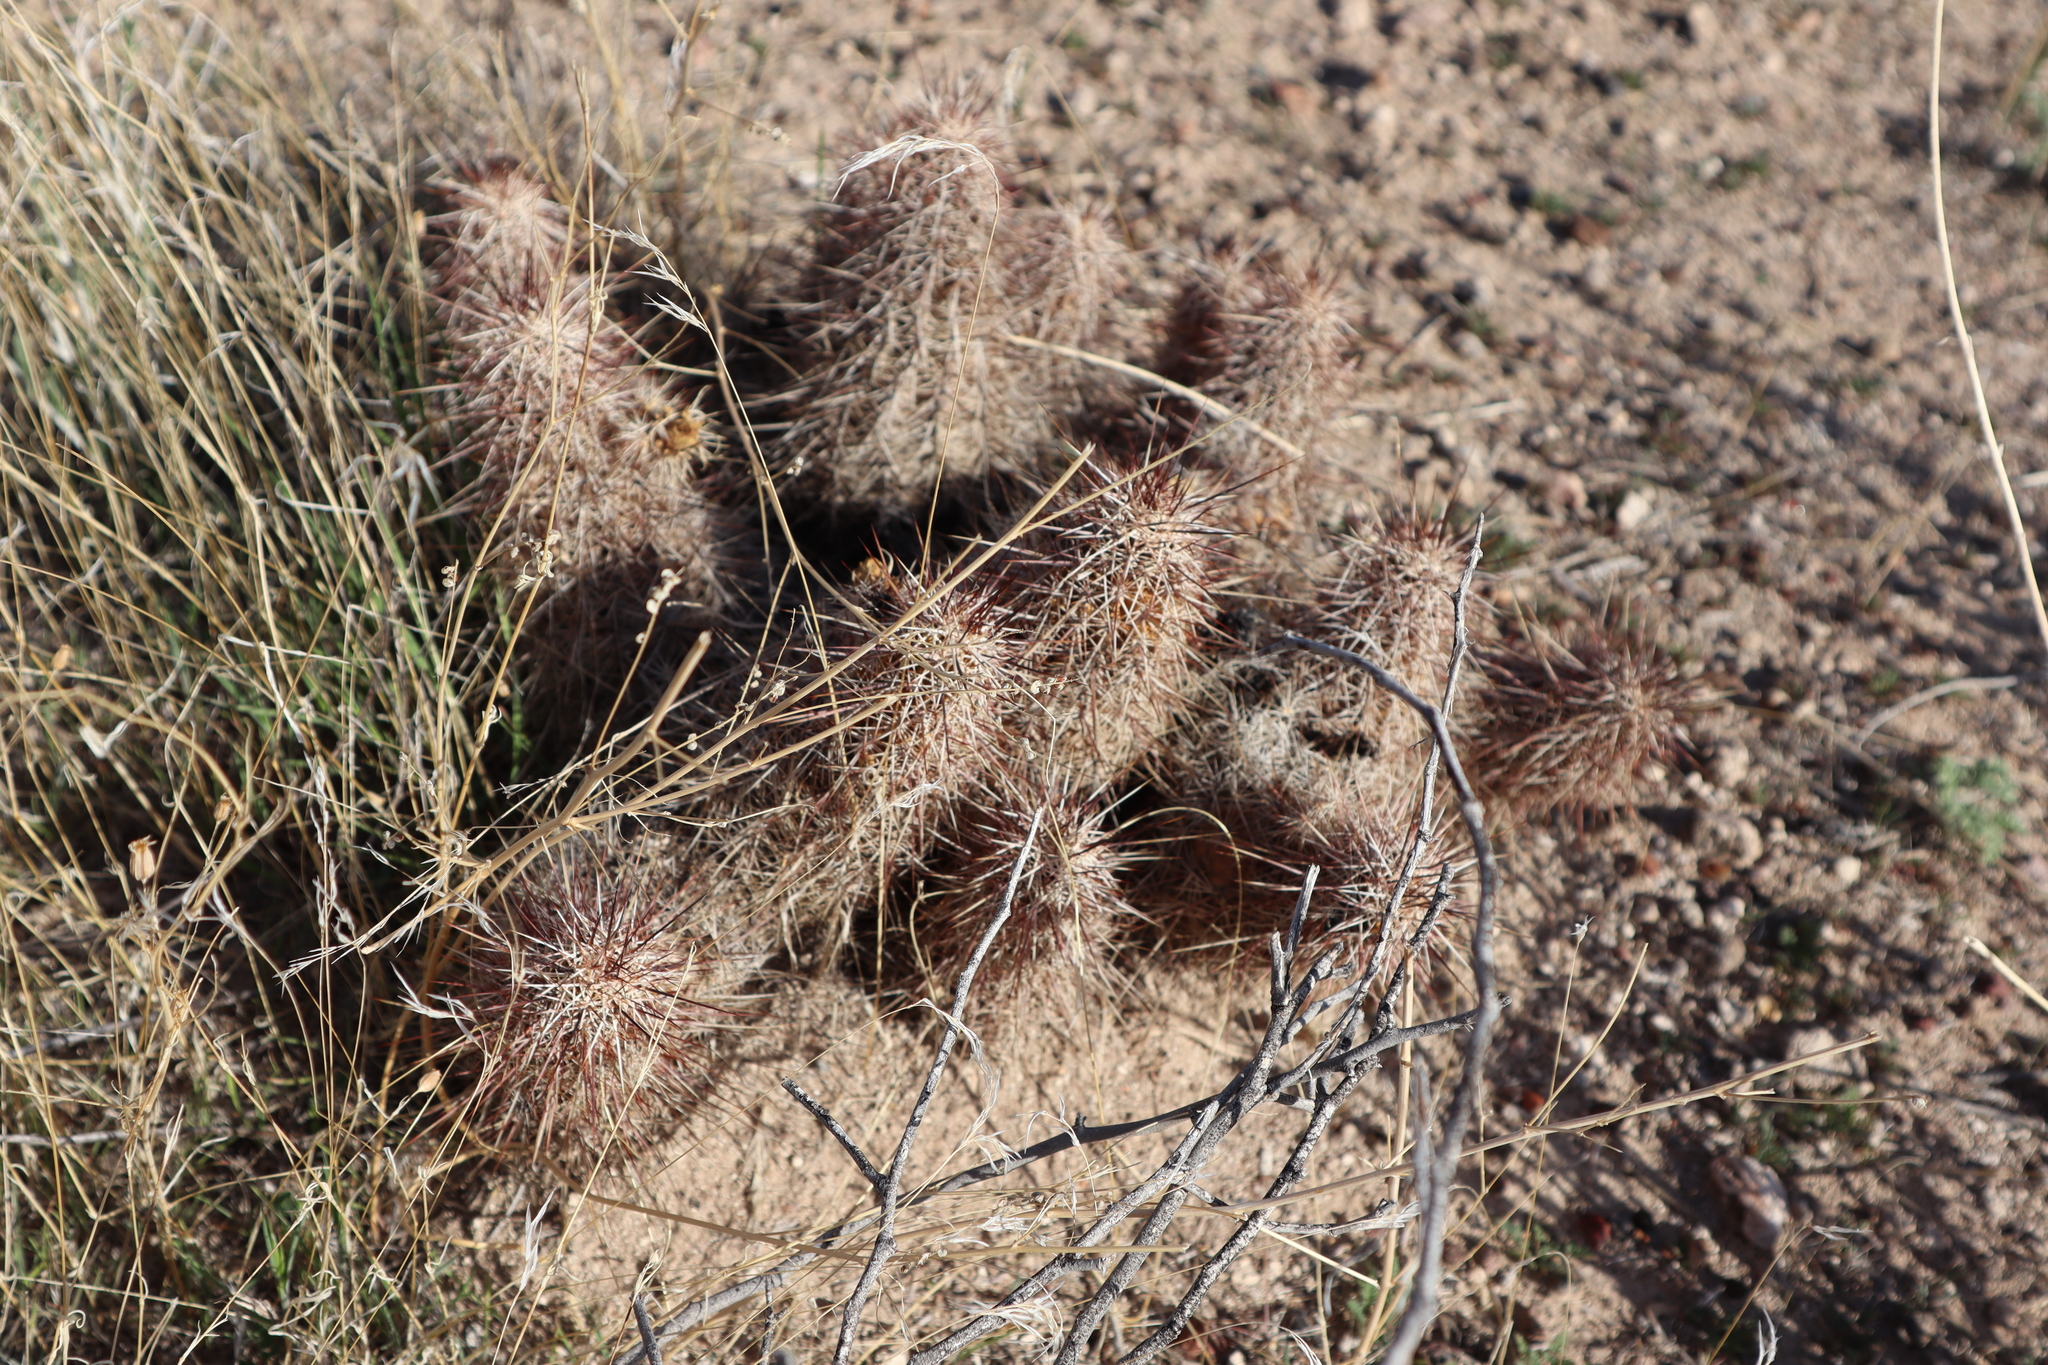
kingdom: Plantae
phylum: Tracheophyta
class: Magnoliopsida
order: Caryophyllales
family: Cactaceae
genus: Echinocereus
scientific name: Echinocereus fasciculatus
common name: Bundle hedgehog
